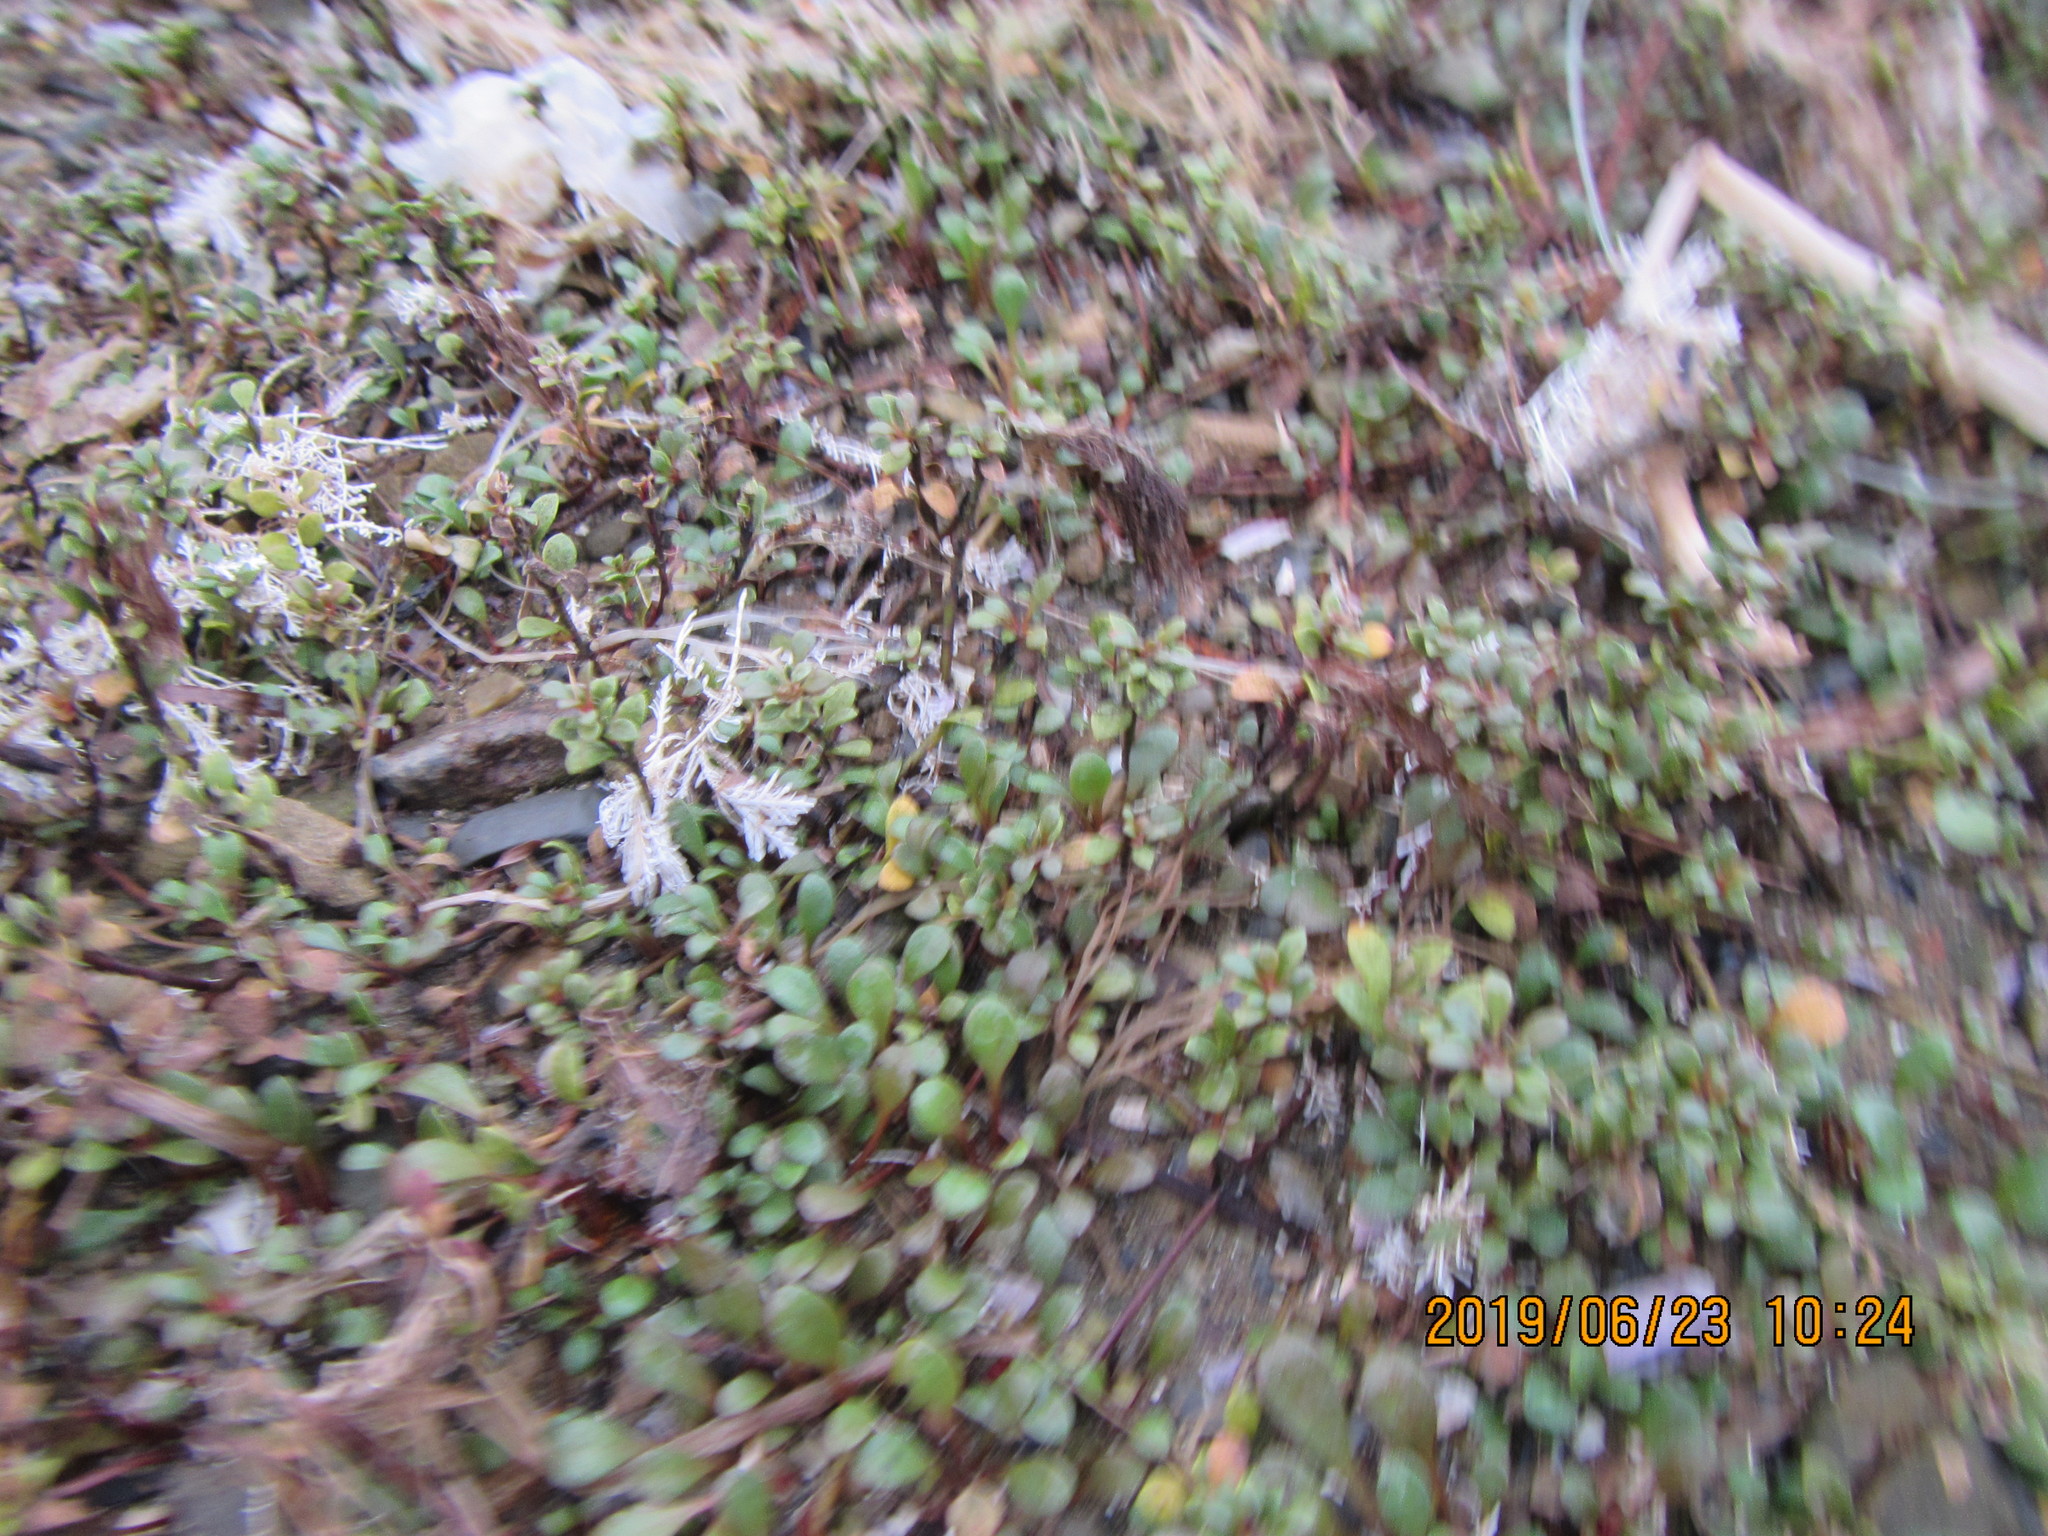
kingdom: Plantae
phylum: Tracheophyta
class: Magnoliopsida
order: Ericales
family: Primulaceae
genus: Samolus
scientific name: Samolus repens
